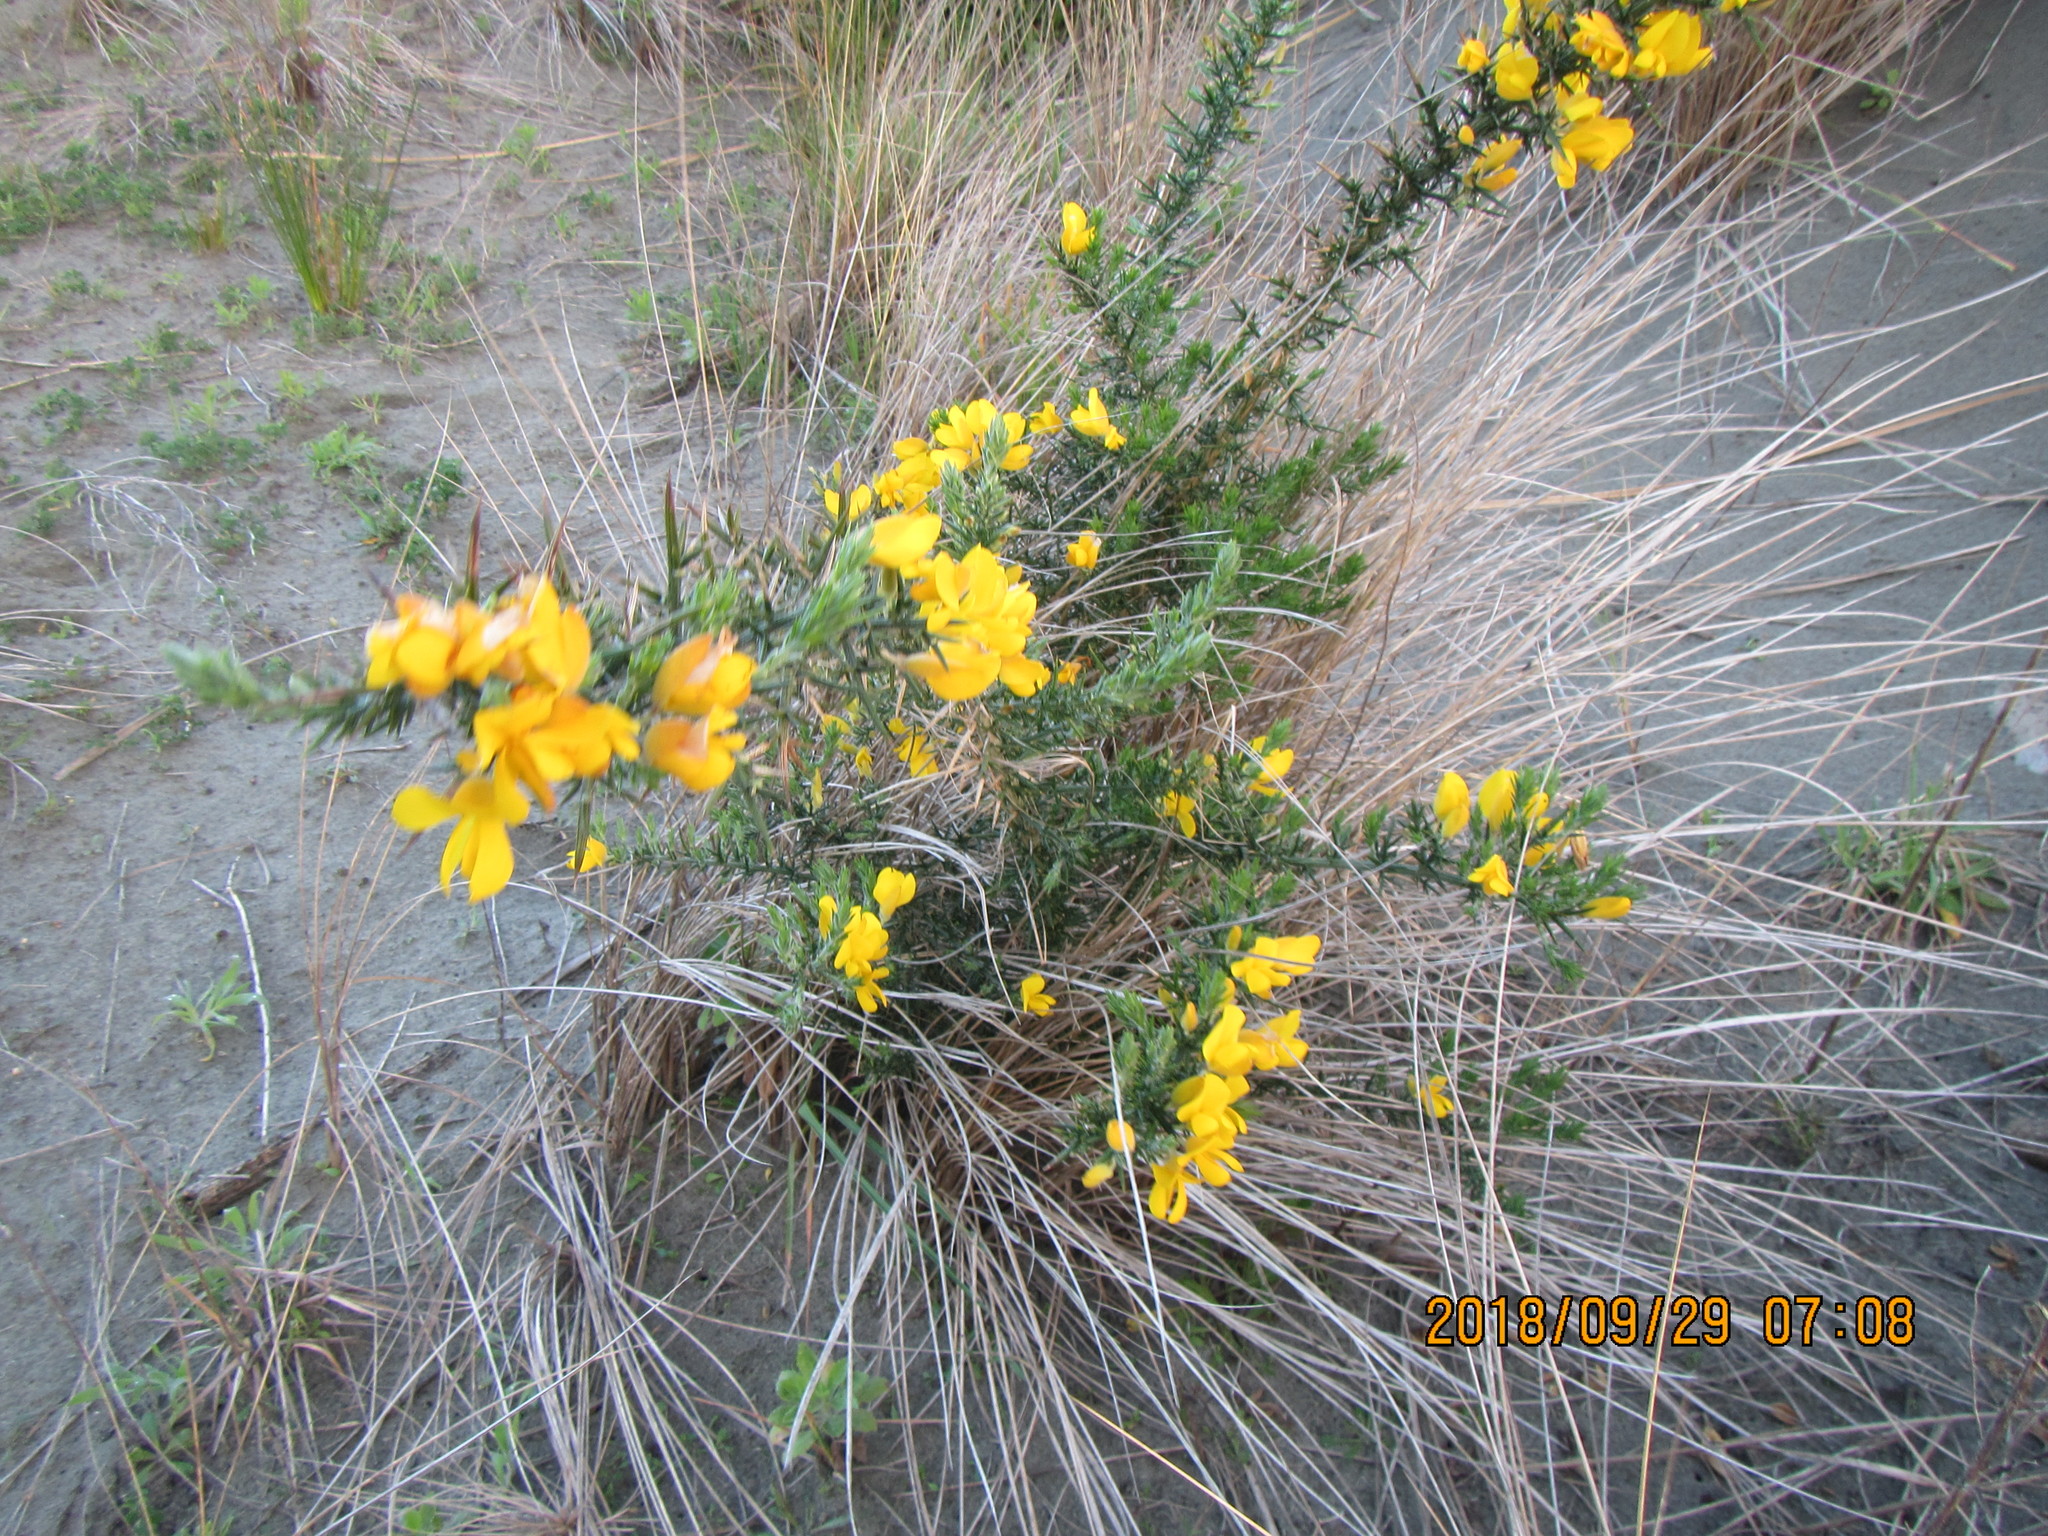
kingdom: Plantae
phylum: Tracheophyta
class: Magnoliopsida
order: Fabales
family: Fabaceae
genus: Ulex
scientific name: Ulex europaeus
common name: Common gorse
